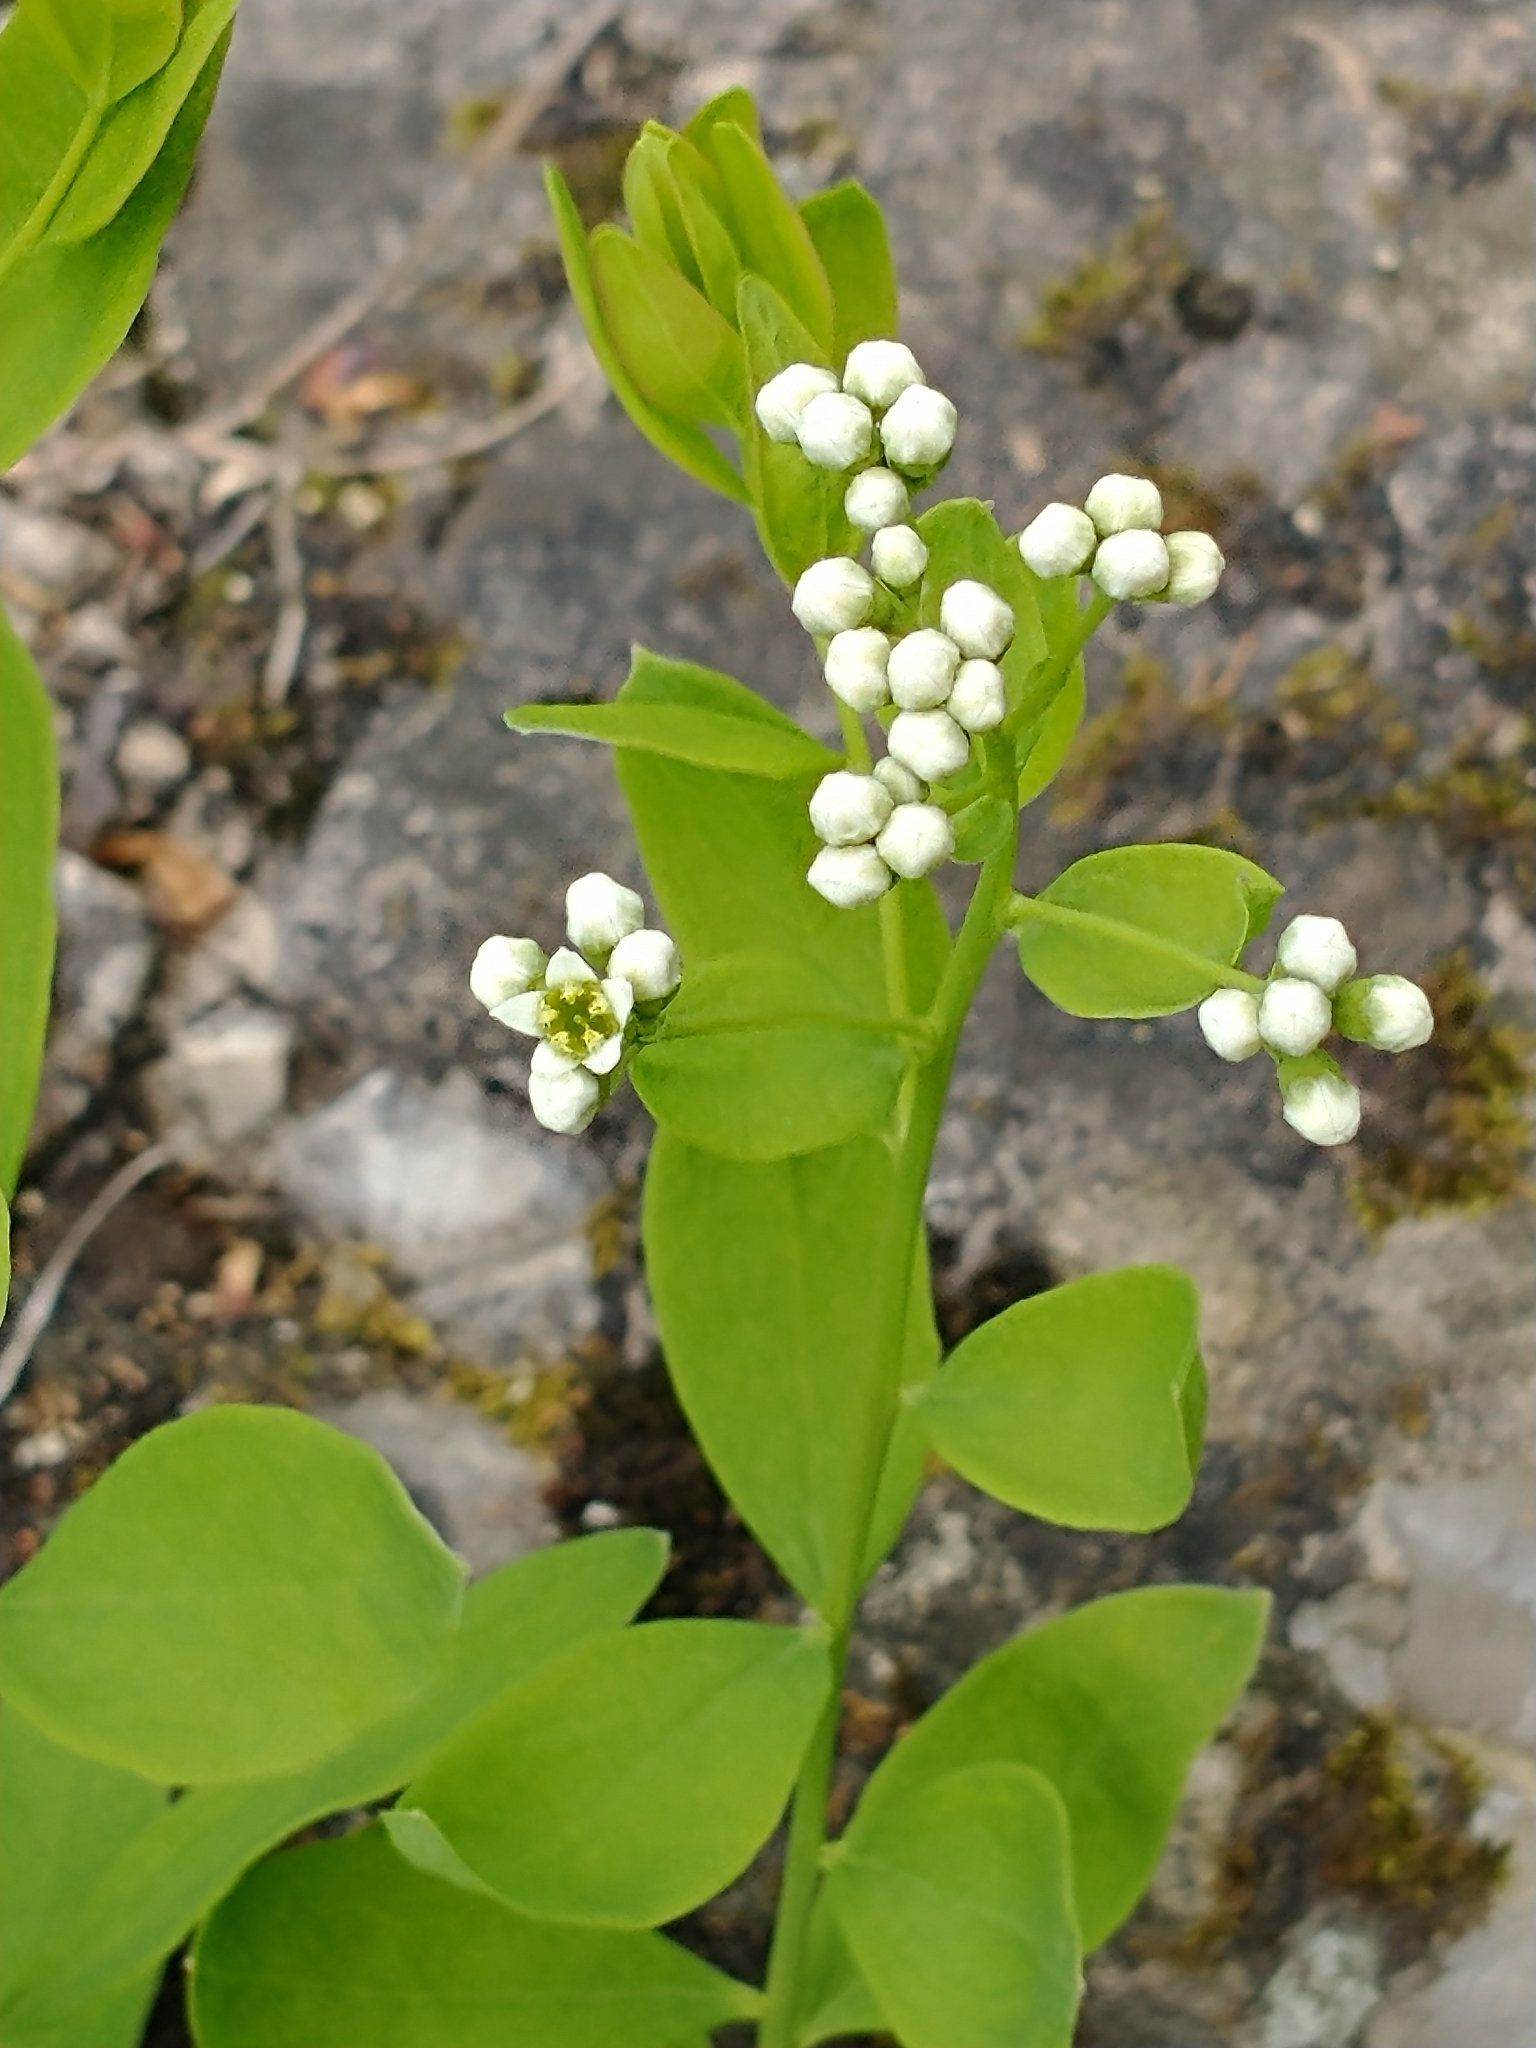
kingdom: Plantae
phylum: Tracheophyta
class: Magnoliopsida
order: Santalales
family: Comandraceae
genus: Comandra
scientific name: Comandra umbellata
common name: Bastard toadflax
